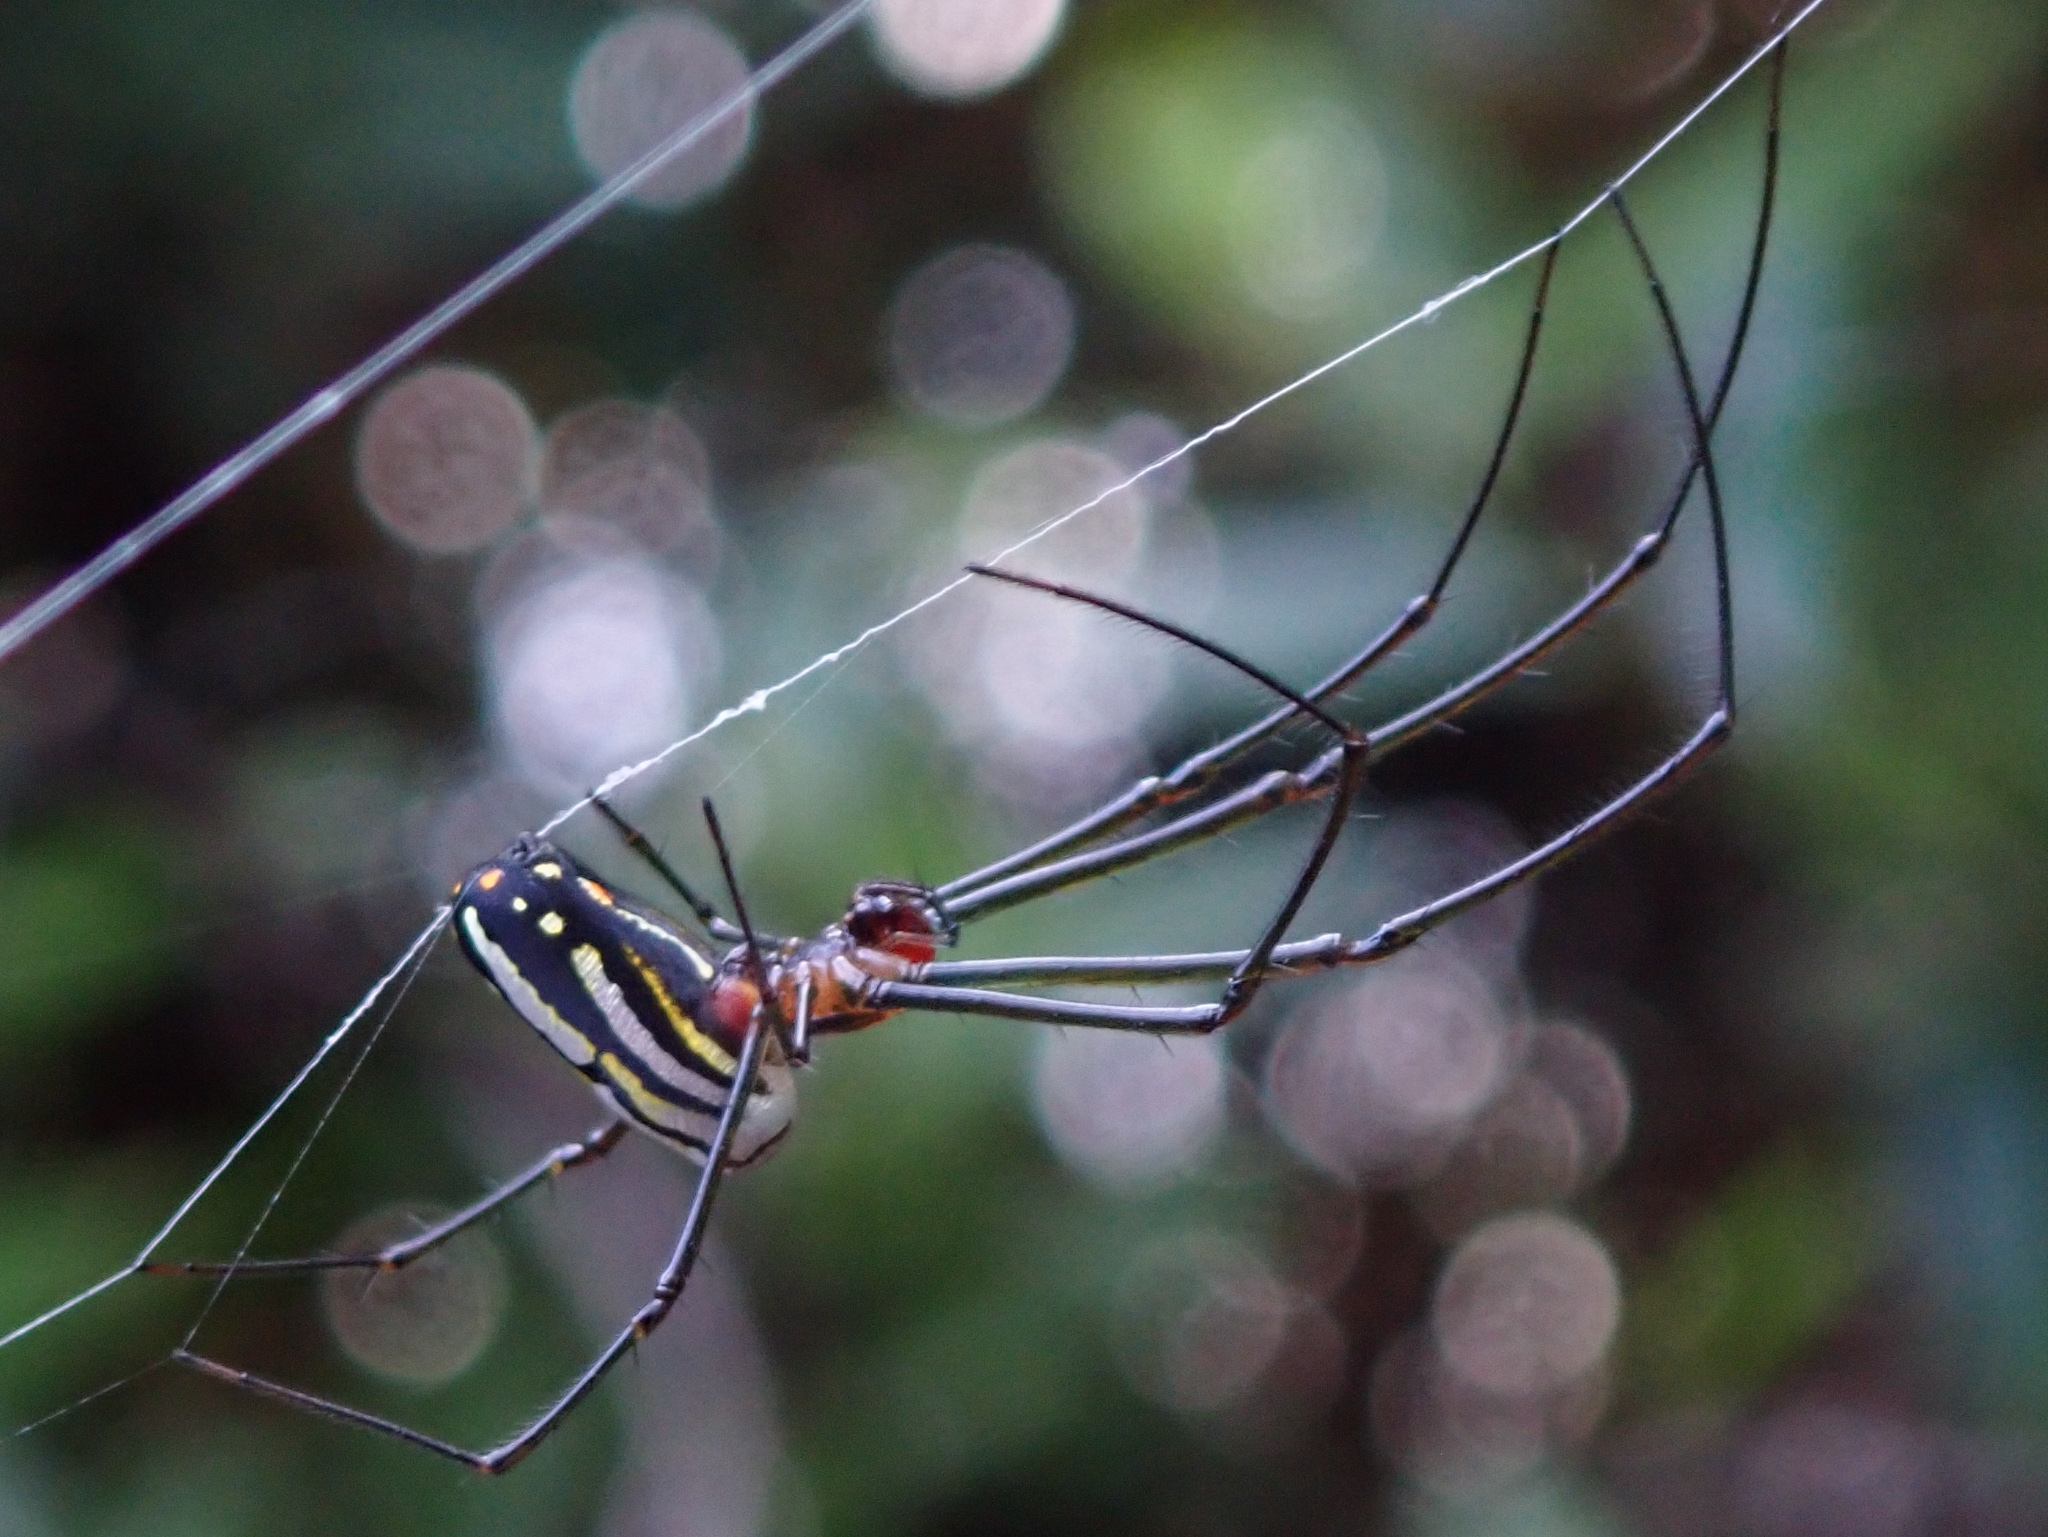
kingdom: Animalia
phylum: Arthropoda
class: Arachnida
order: Araneae
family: Tetragnathidae
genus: Leucauge
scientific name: Leucauge argyra
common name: Longjawed orb weavers
